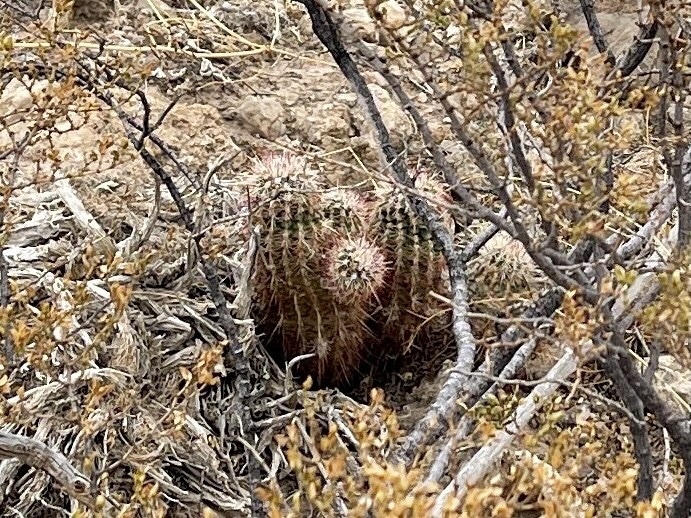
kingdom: Plantae
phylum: Tracheophyta
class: Magnoliopsida
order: Caryophyllales
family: Cactaceae
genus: Echinocereus
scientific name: Echinocereus viridiflorus
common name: Nylon hedgehog cactus
